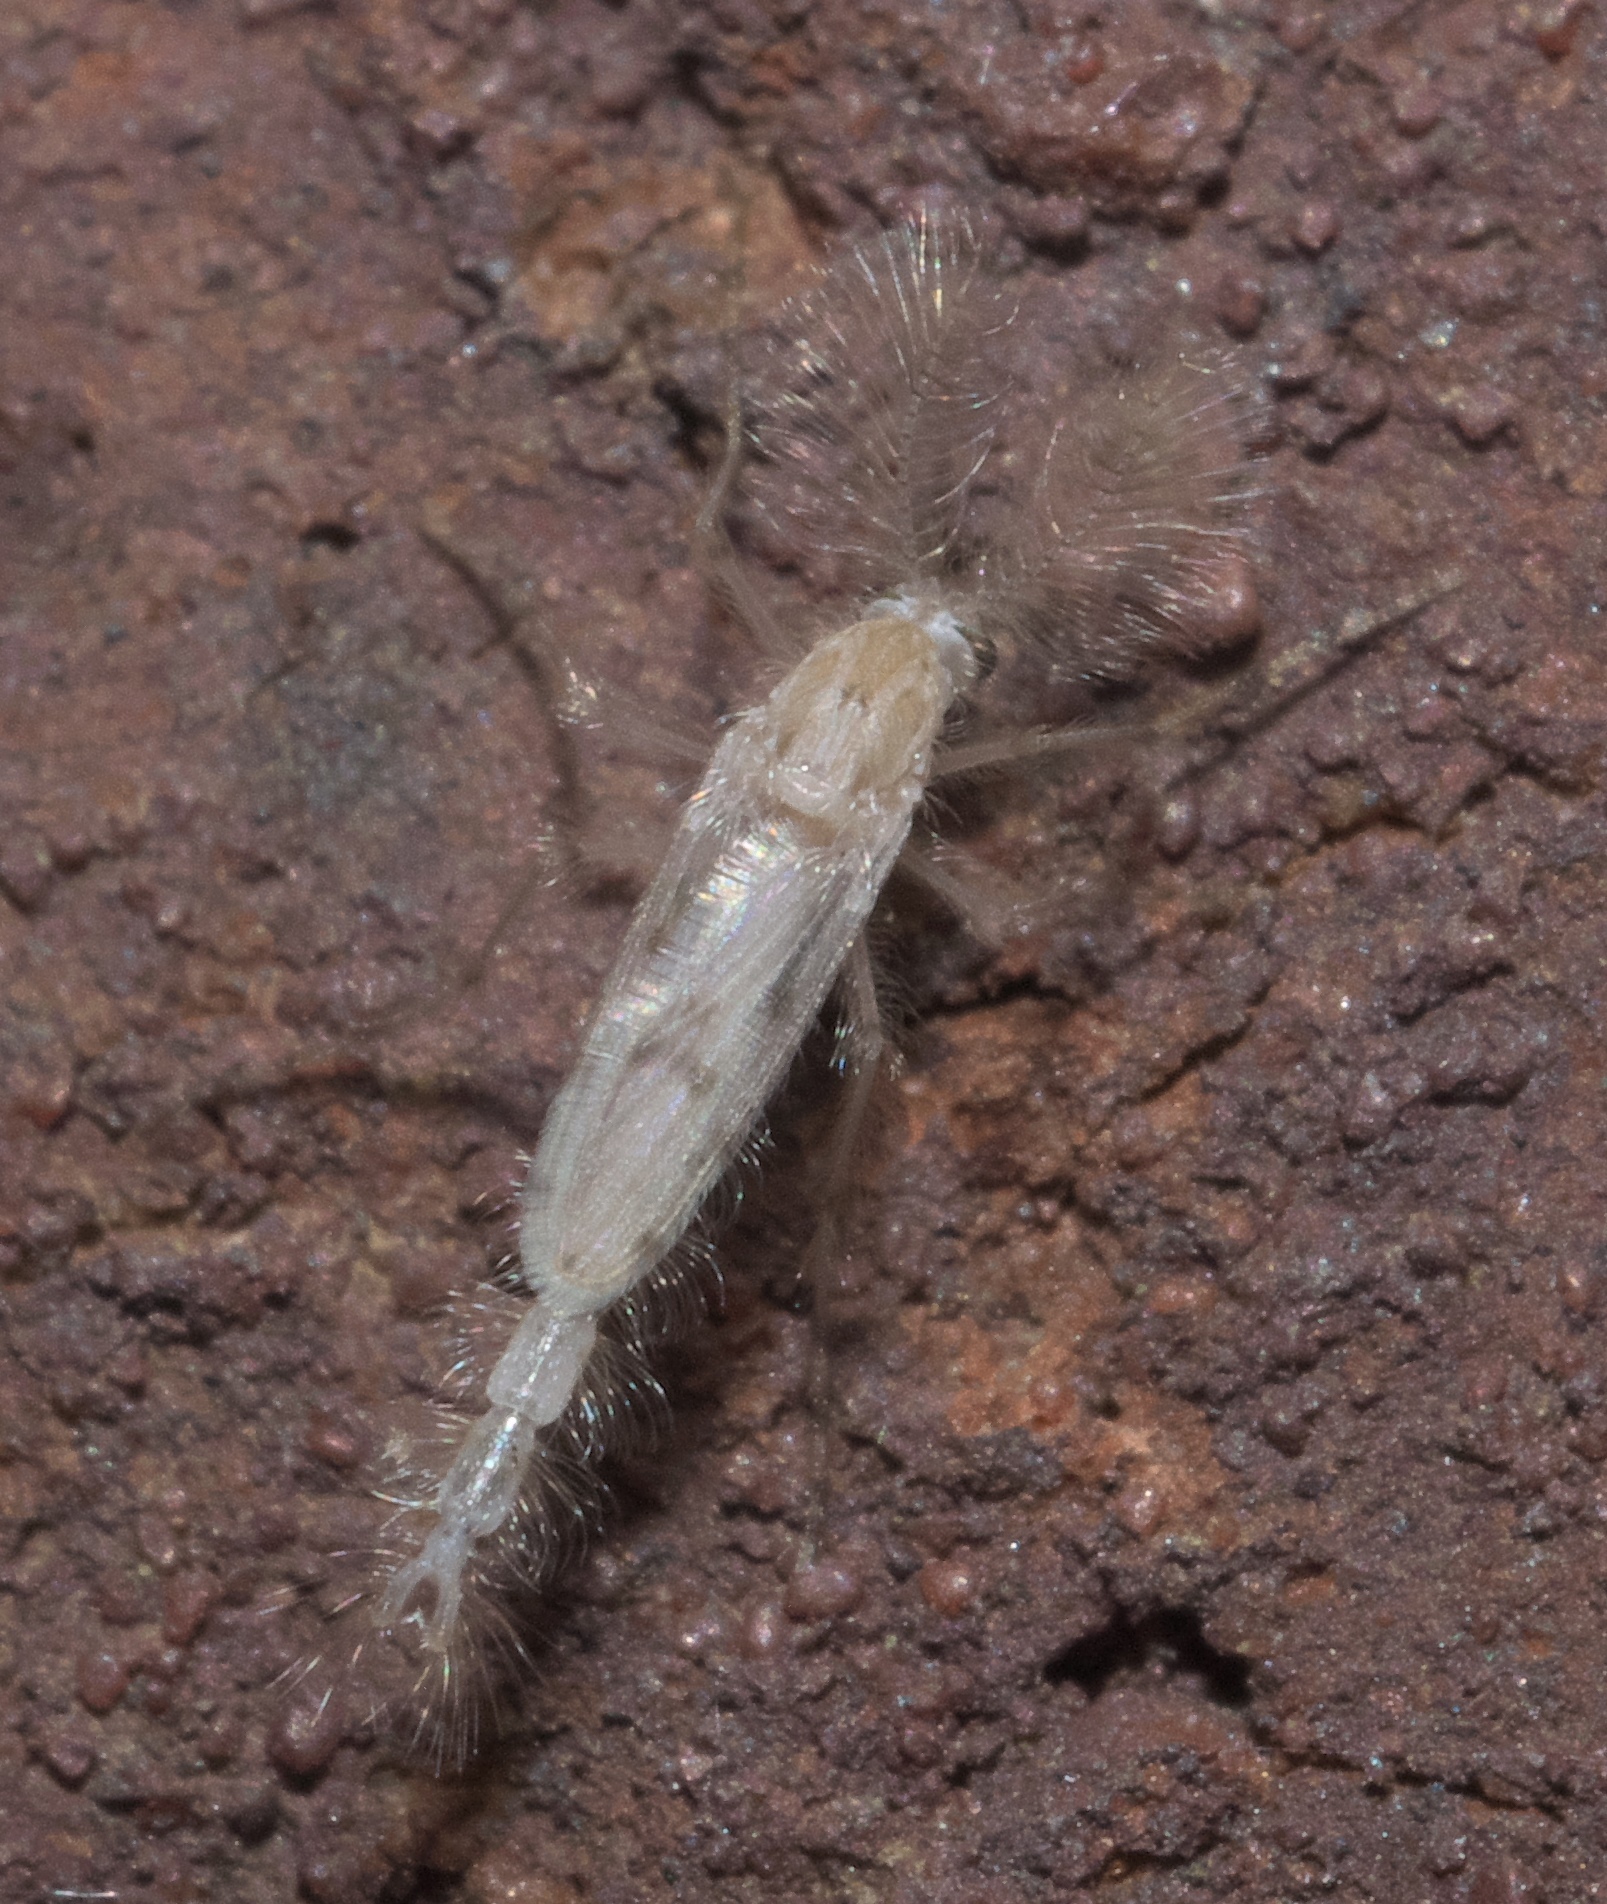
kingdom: Animalia
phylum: Arthropoda
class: Insecta
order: Diptera
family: Chaoboridae
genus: Chaoborus
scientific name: Chaoborus albatus
